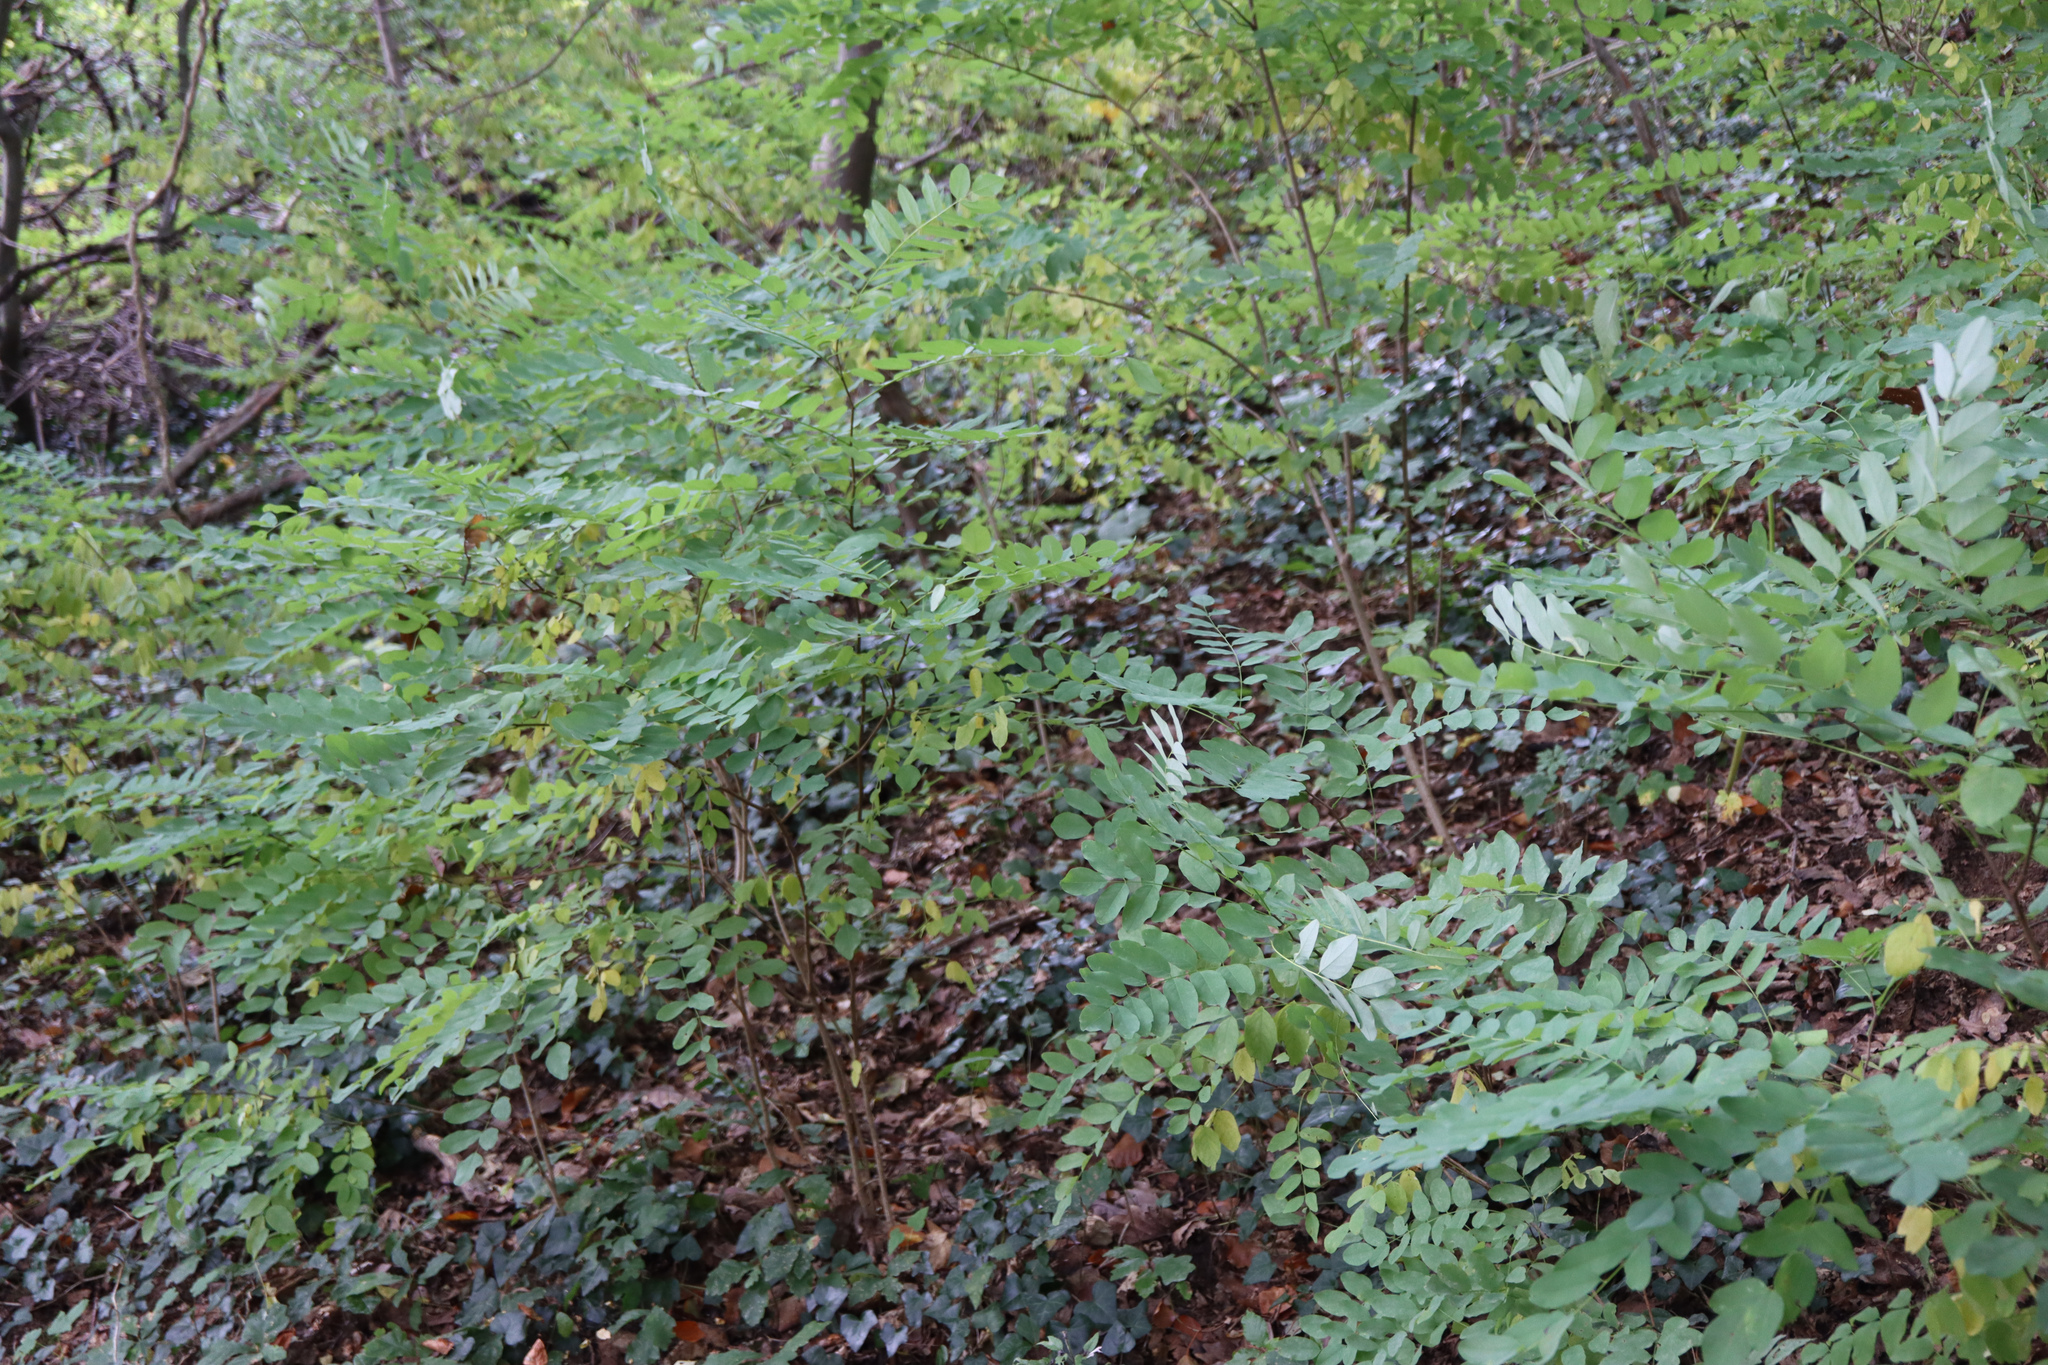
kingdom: Plantae
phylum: Tracheophyta
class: Magnoliopsida
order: Fabales
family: Fabaceae
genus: Robinia
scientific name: Robinia pseudoacacia
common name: Black locust
